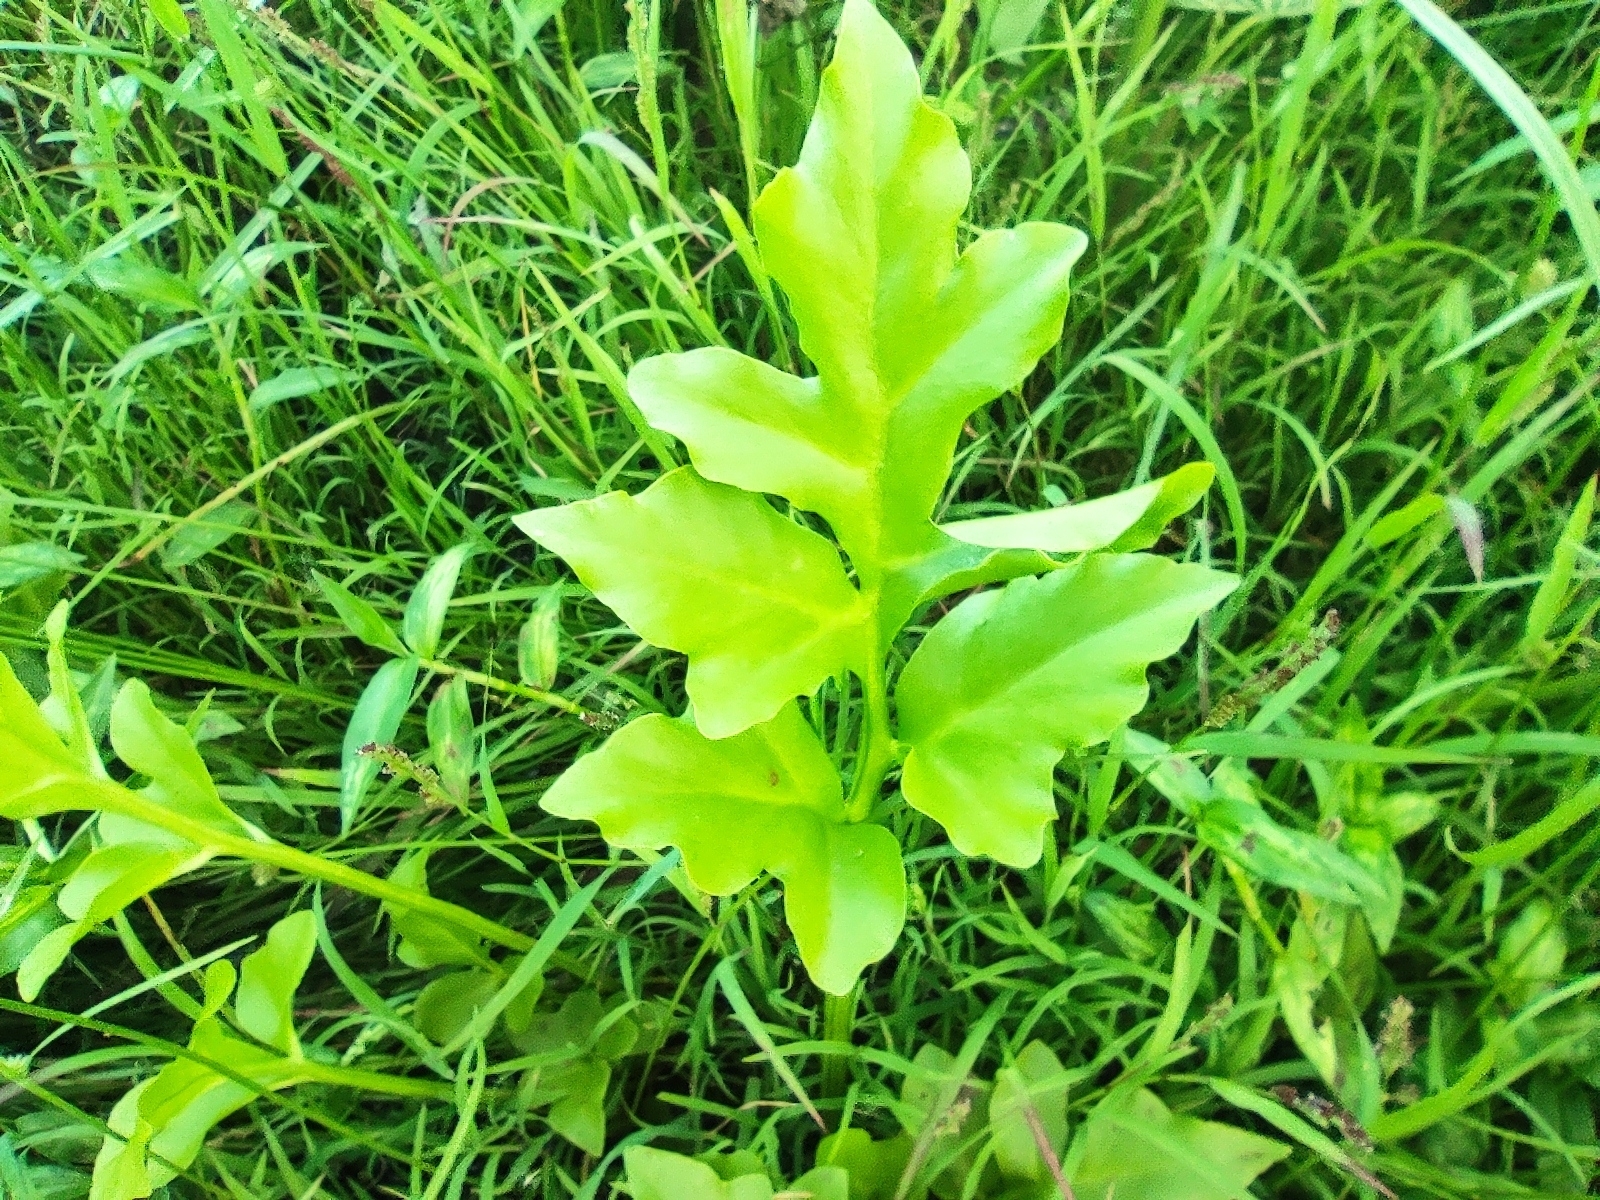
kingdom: Plantae
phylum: Tracheophyta
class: Polypodiopsida
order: Polypodiales
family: Pteridaceae
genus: Ceratopteris
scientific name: Ceratopteris cornuta
